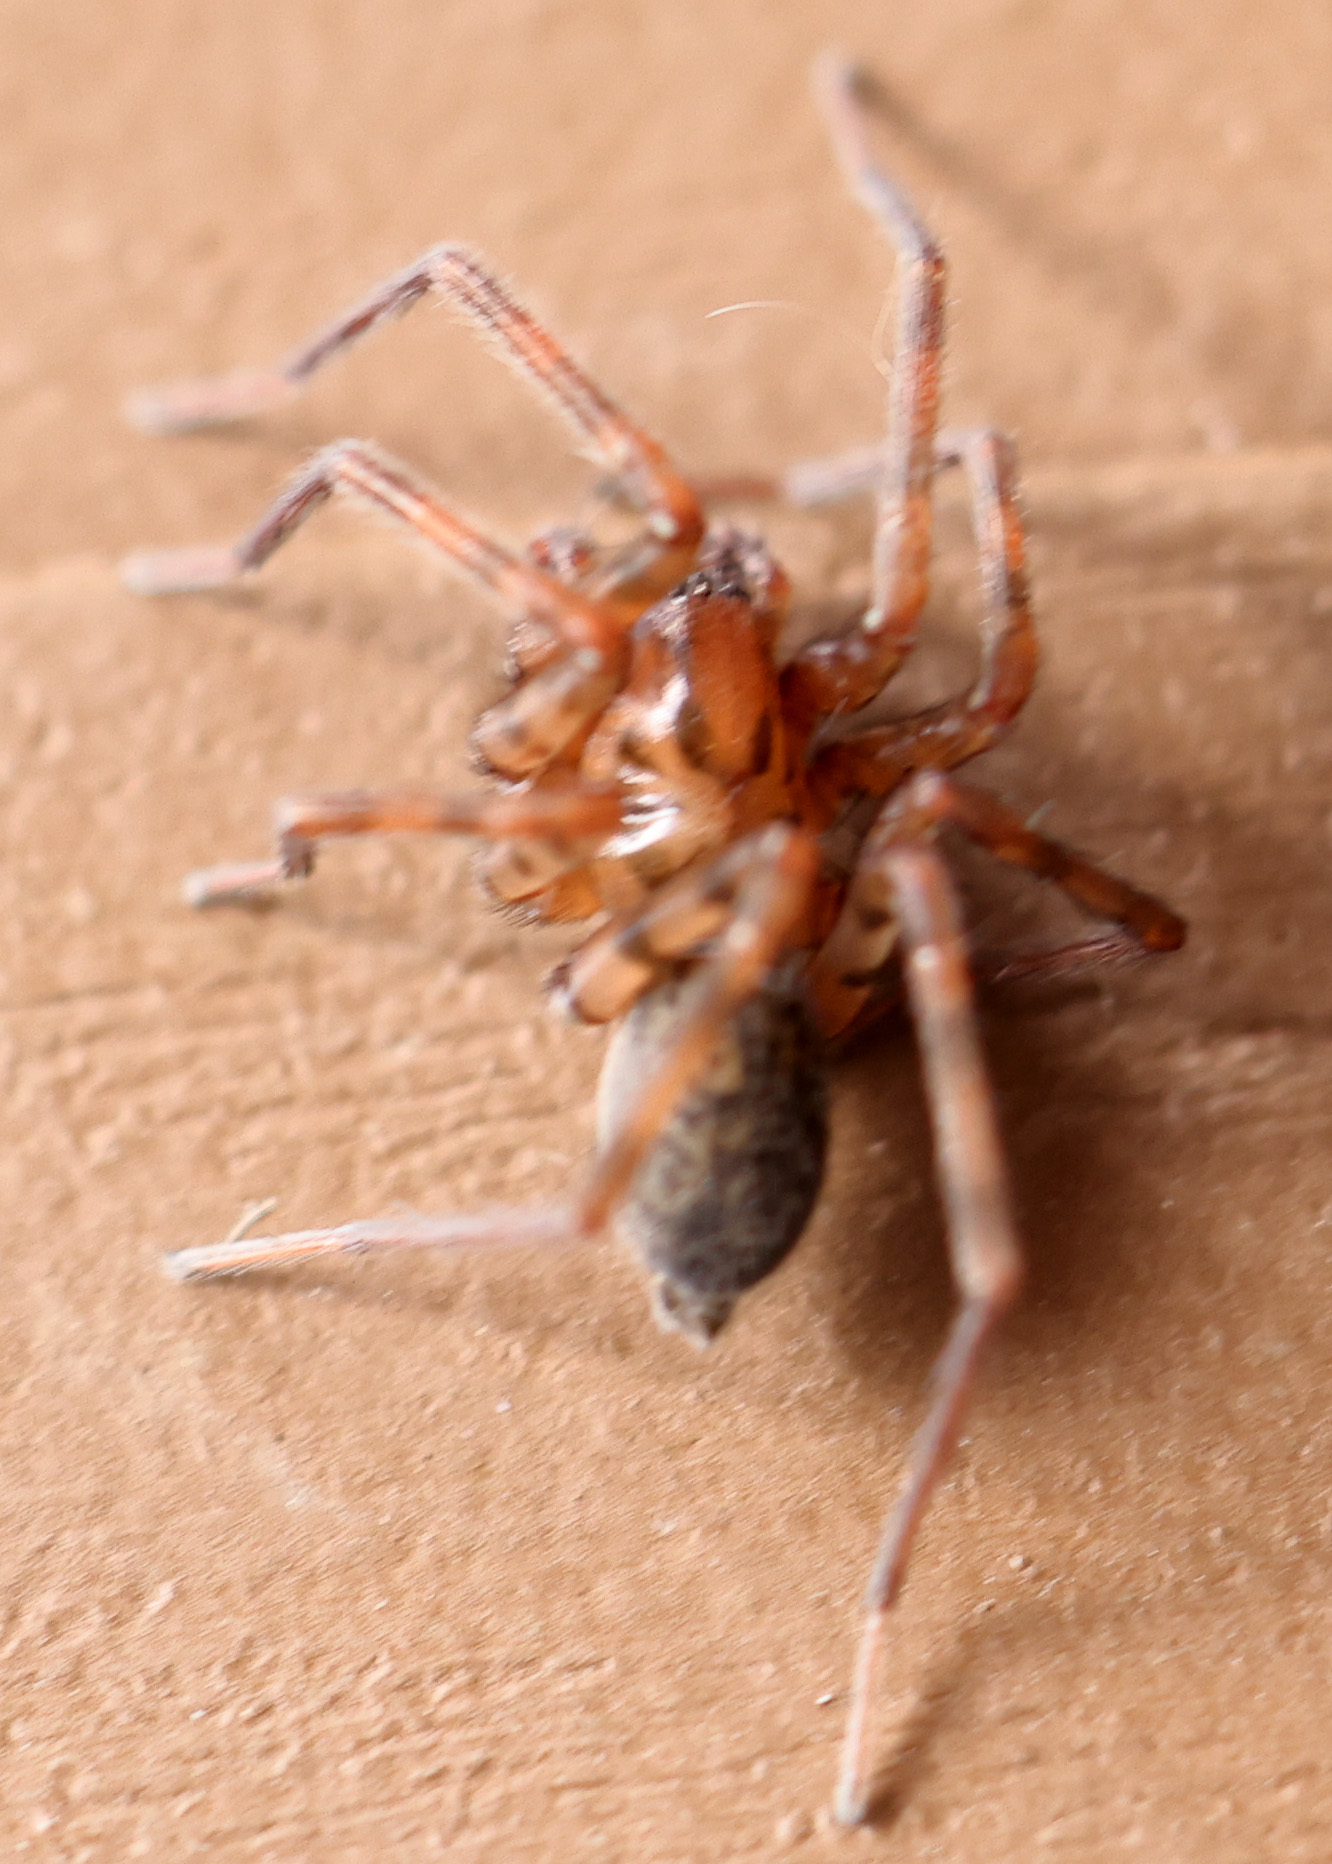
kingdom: Animalia
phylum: Arthropoda
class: Arachnida
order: Araneae
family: Agelenidae
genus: Coras
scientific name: Coras
